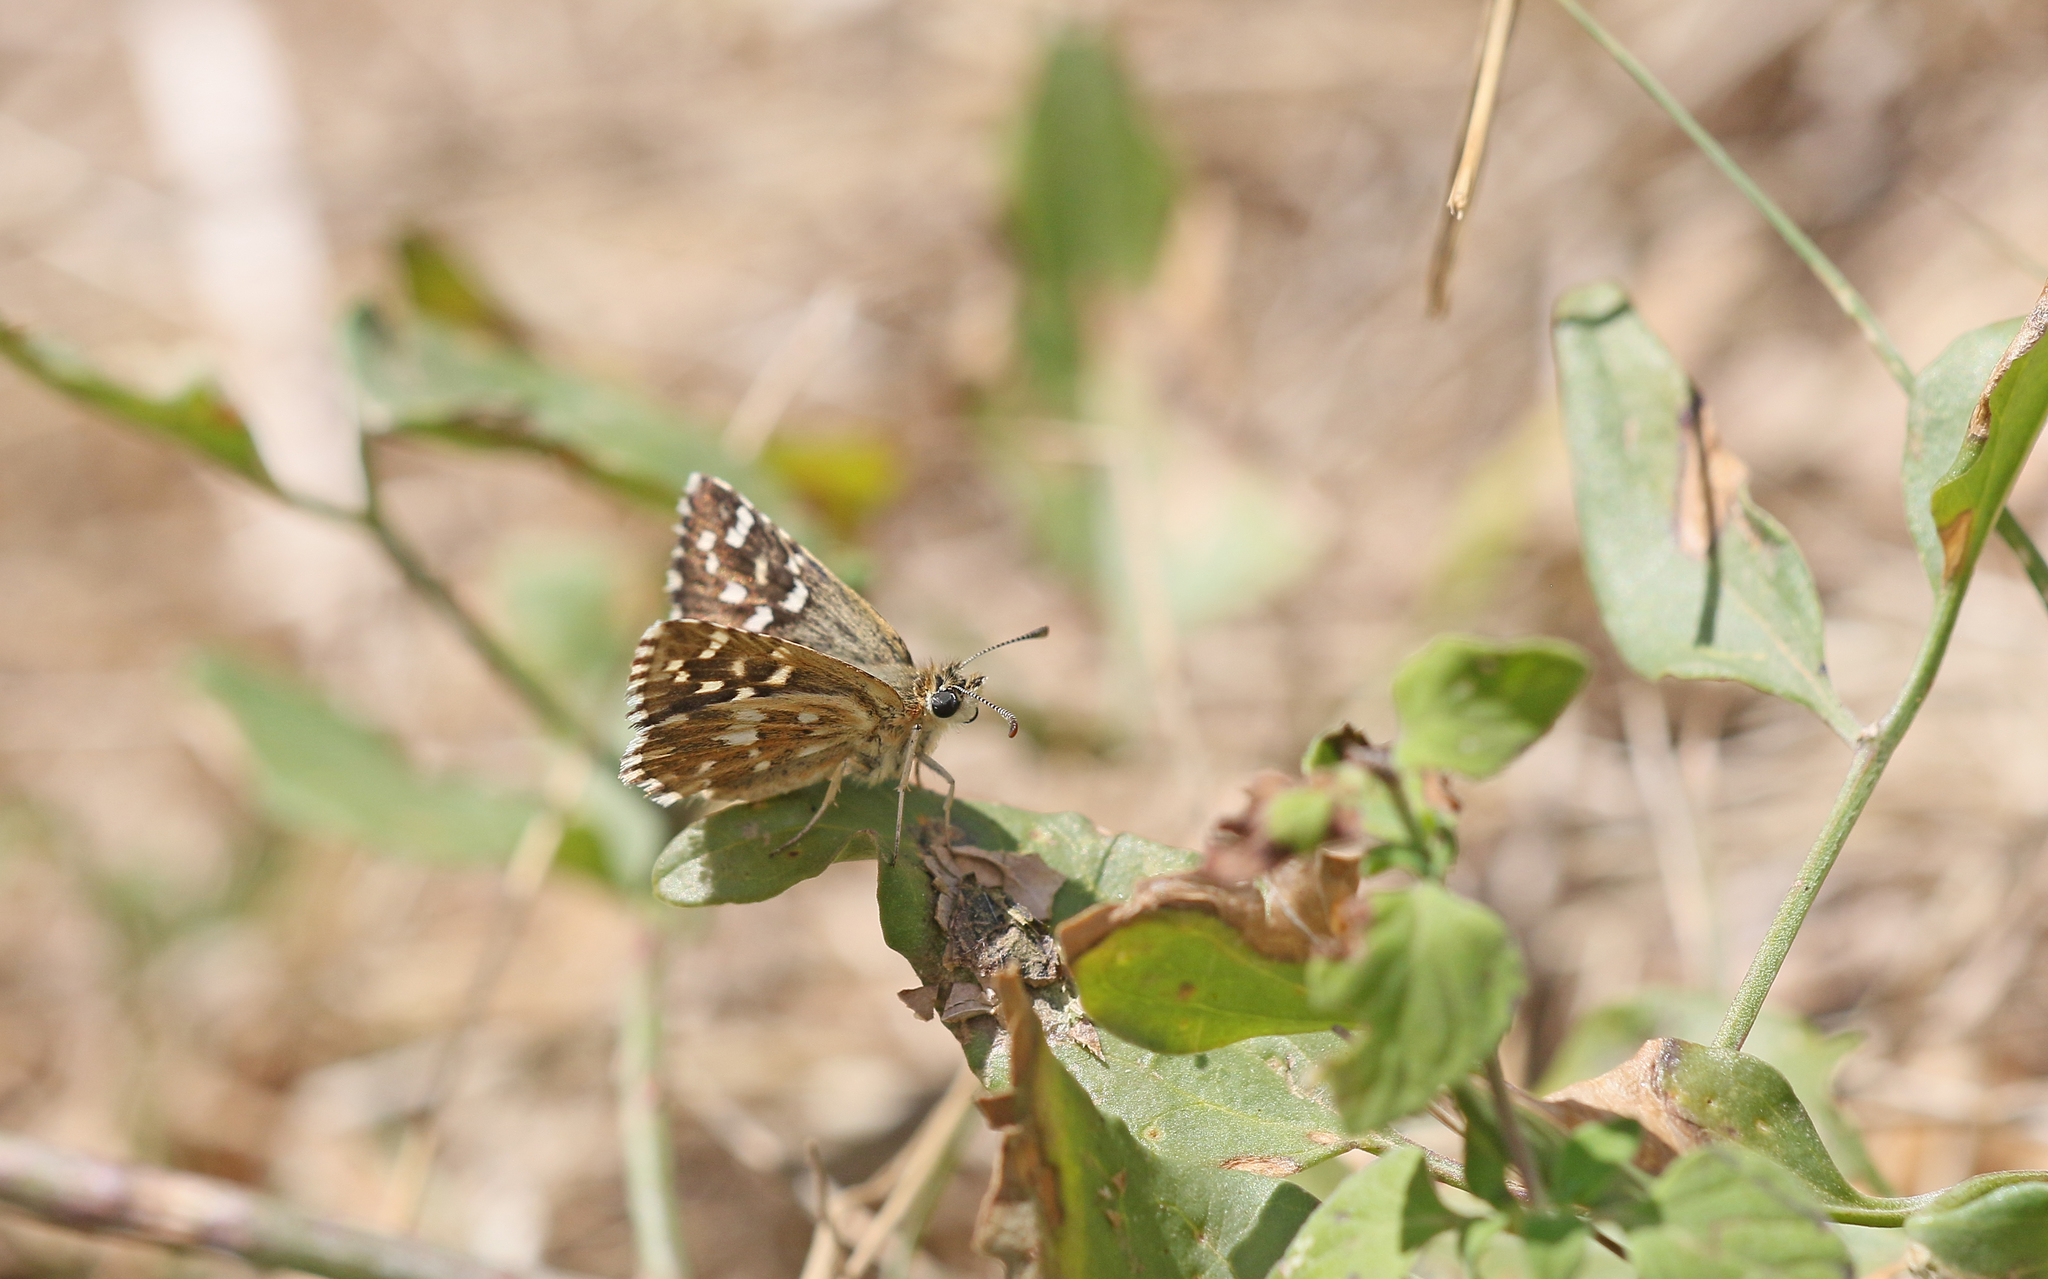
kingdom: Animalia
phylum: Arthropoda
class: Insecta
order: Lepidoptera
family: Hesperiidae
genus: Pyrgus
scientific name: Pyrgus malvoides
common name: Southern grizzled skipper
